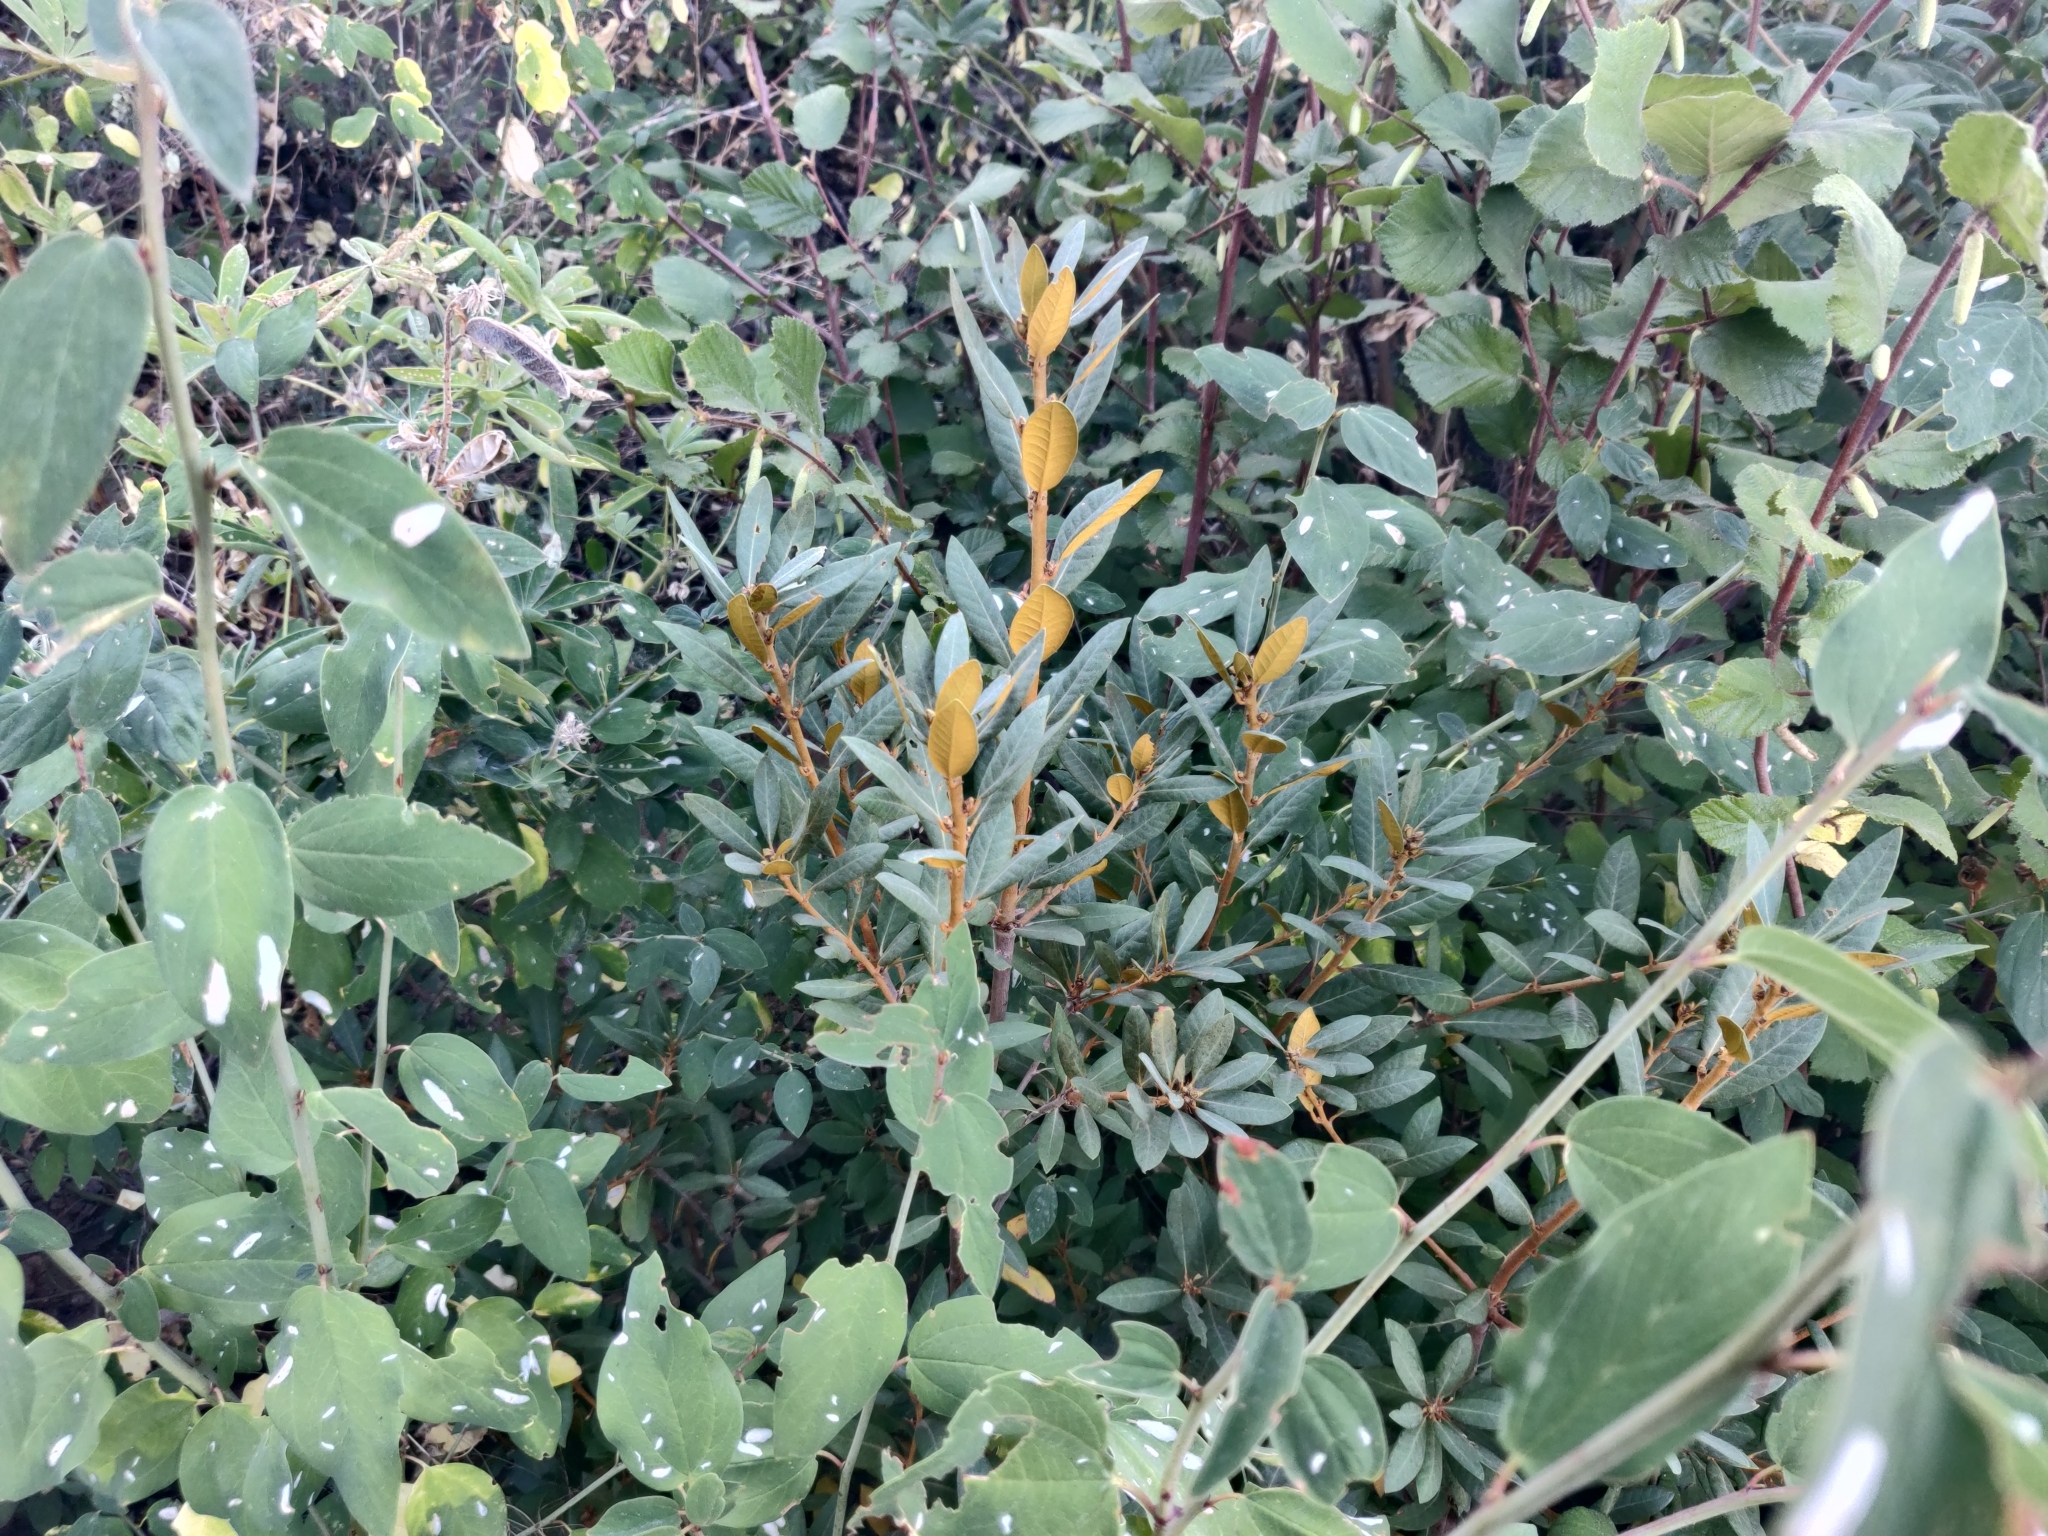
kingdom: Plantae
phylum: Tracheophyta
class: Magnoliopsida
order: Fagales
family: Fagaceae
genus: Chrysolepis
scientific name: Chrysolepis sempervirens
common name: Bush chinquapin
